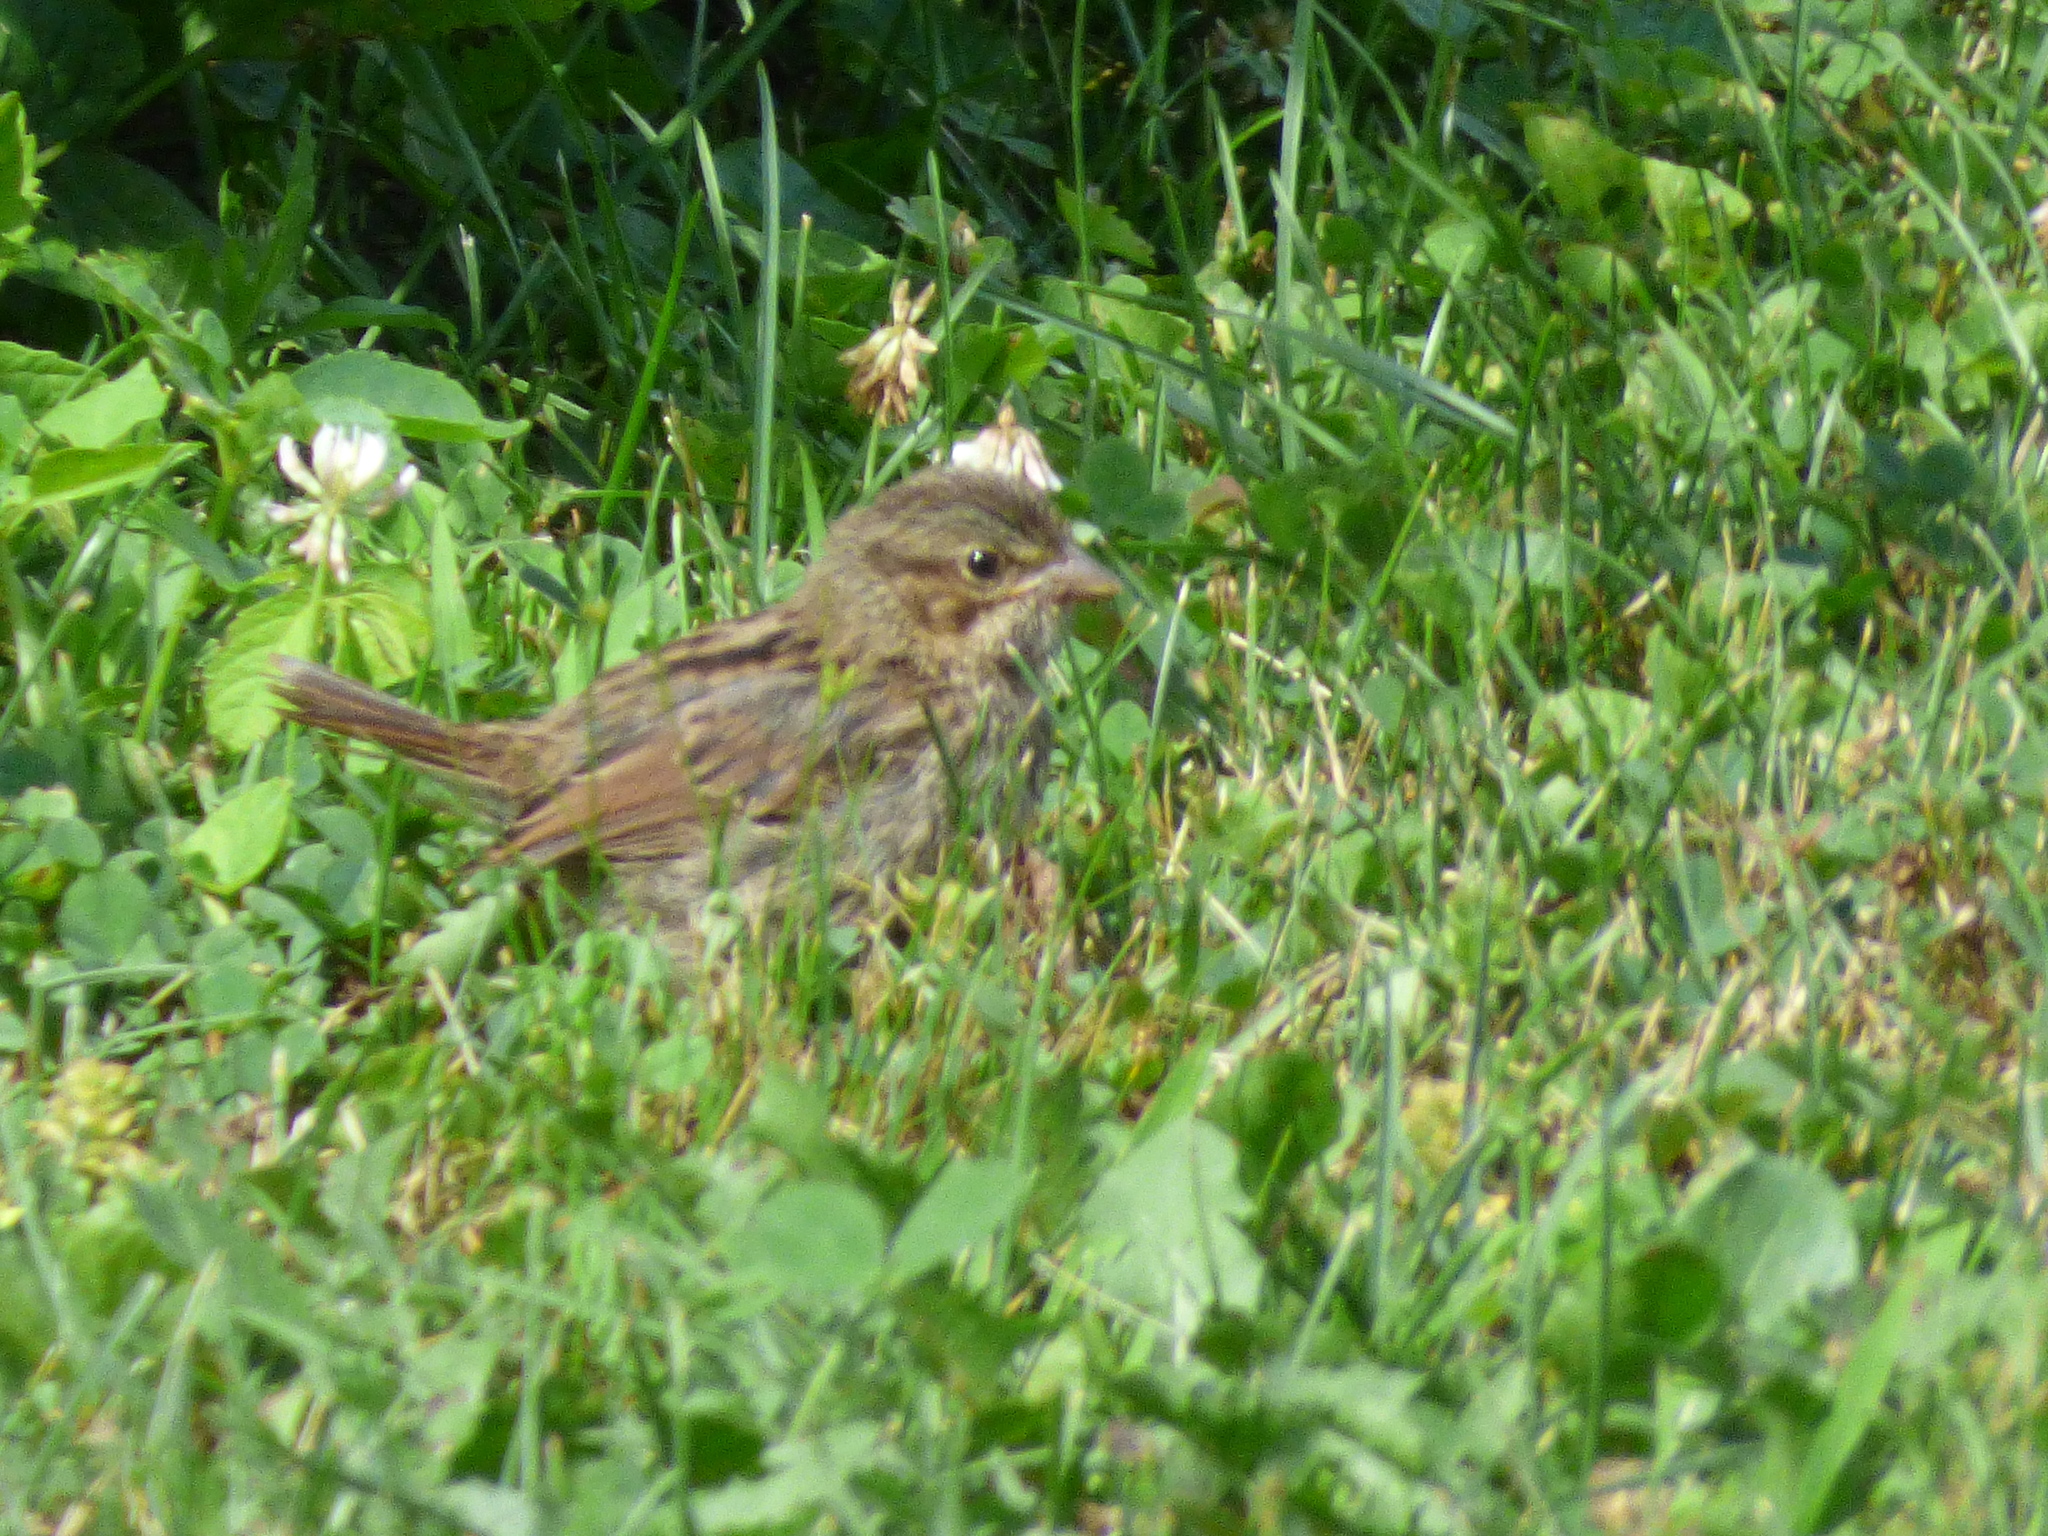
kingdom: Animalia
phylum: Chordata
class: Aves
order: Passeriformes
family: Passerellidae
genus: Melospiza
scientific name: Melospiza melodia
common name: Song sparrow
